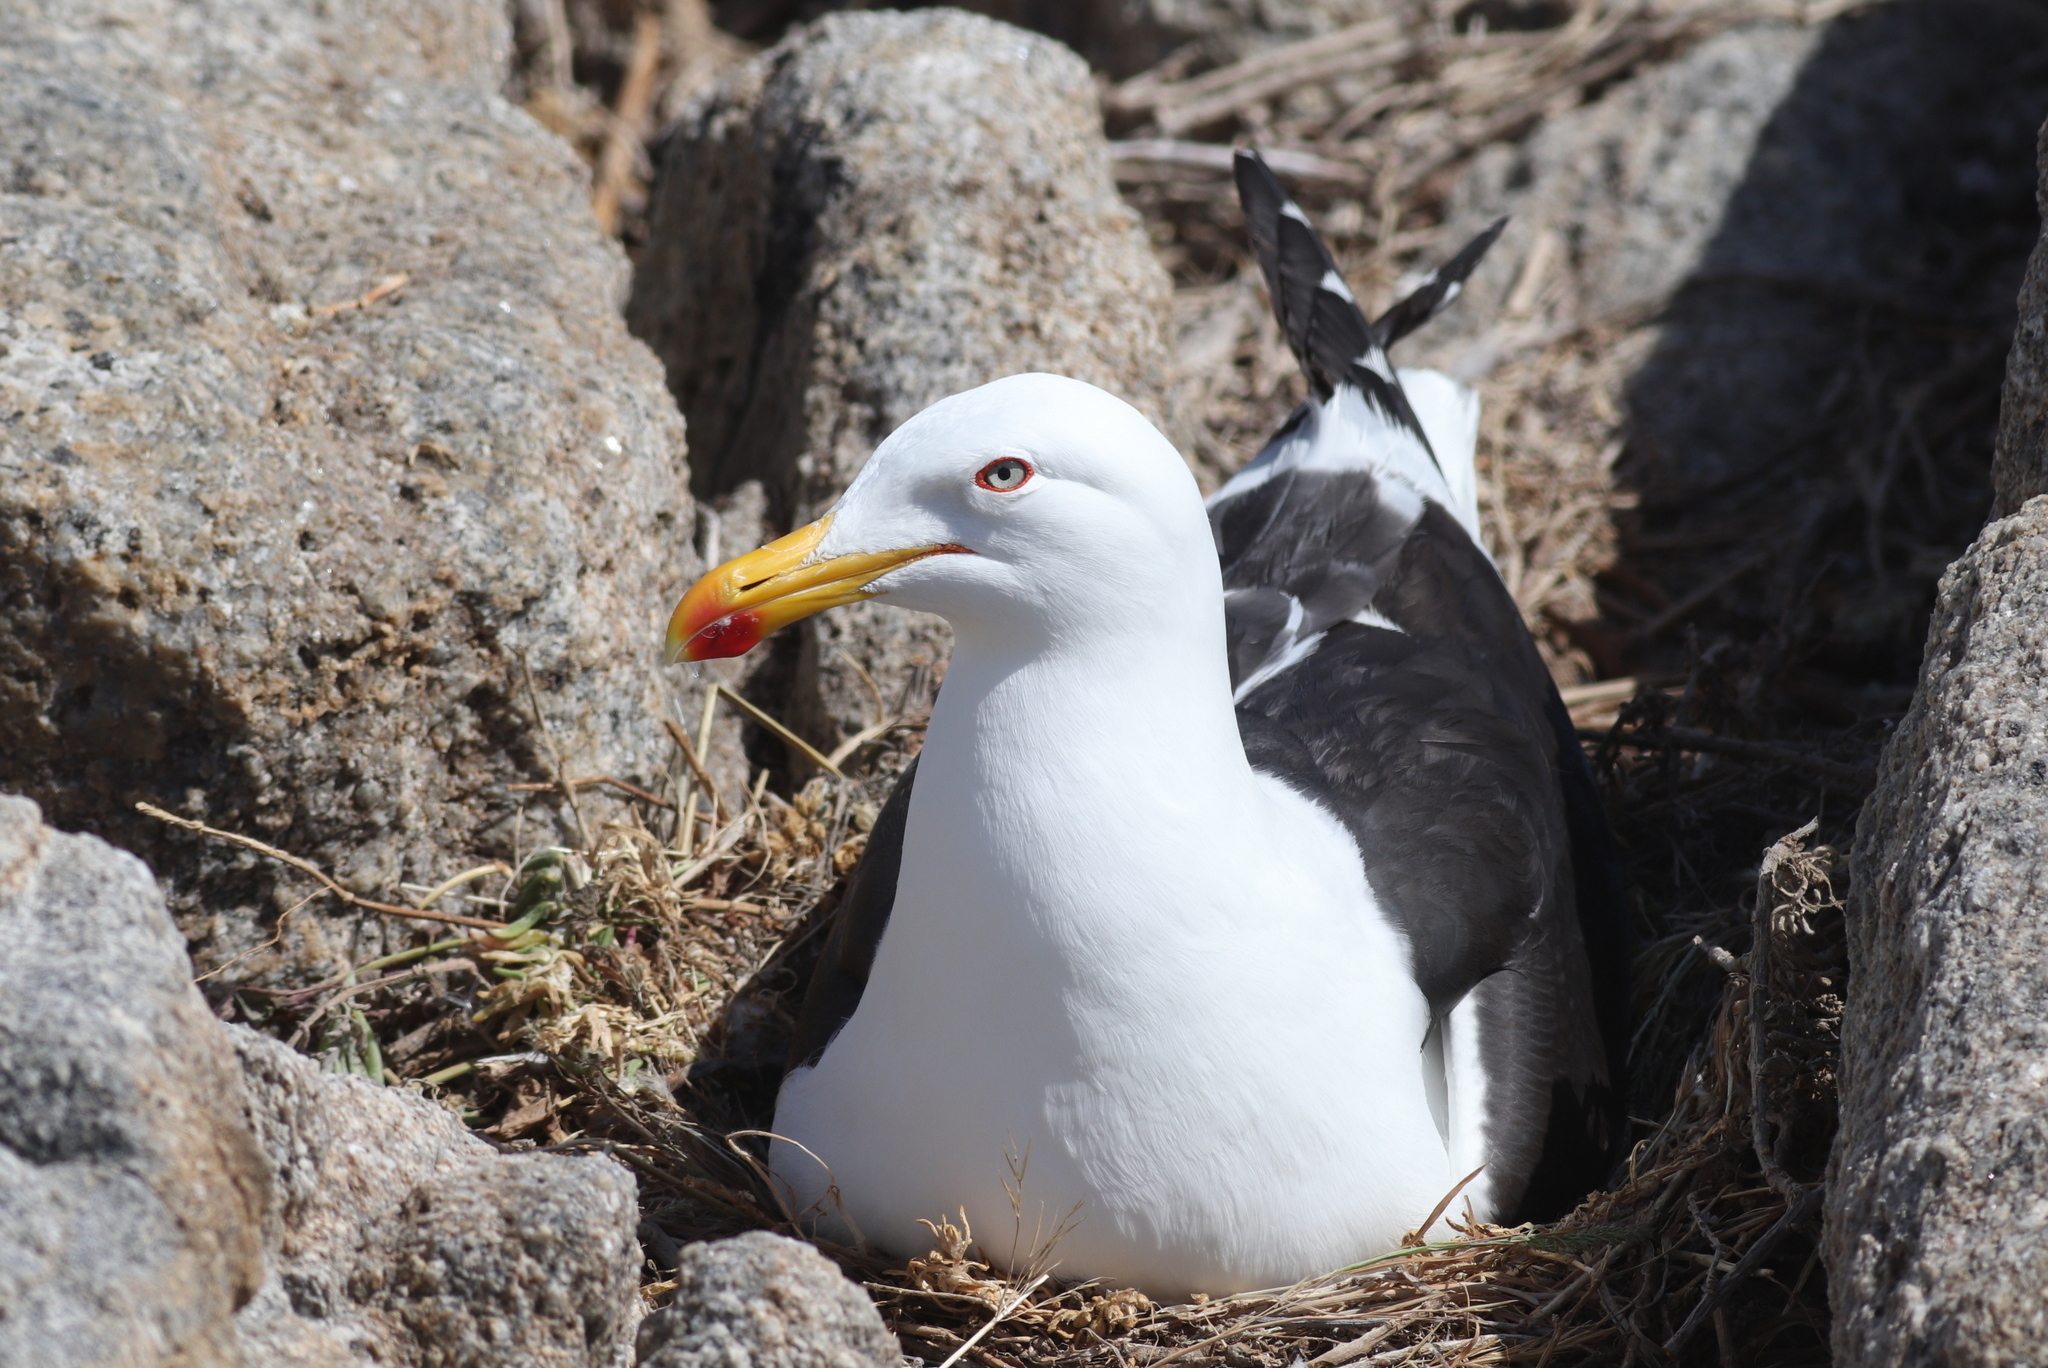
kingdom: Animalia
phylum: Chordata
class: Aves
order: Charadriiformes
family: Laridae
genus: Larus
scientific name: Larus dominicanus
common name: Kelp gull
